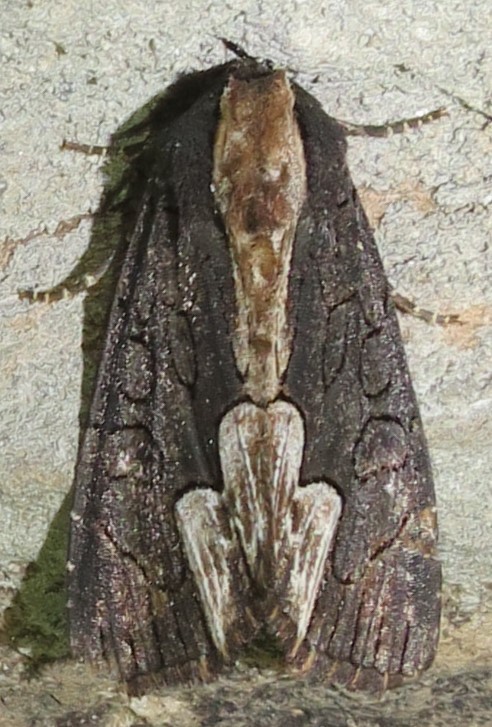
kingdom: Animalia
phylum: Arthropoda
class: Insecta
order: Lepidoptera
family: Noctuidae
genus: Dypterygia
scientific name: Dypterygia rozmani
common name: American bird's-wing
